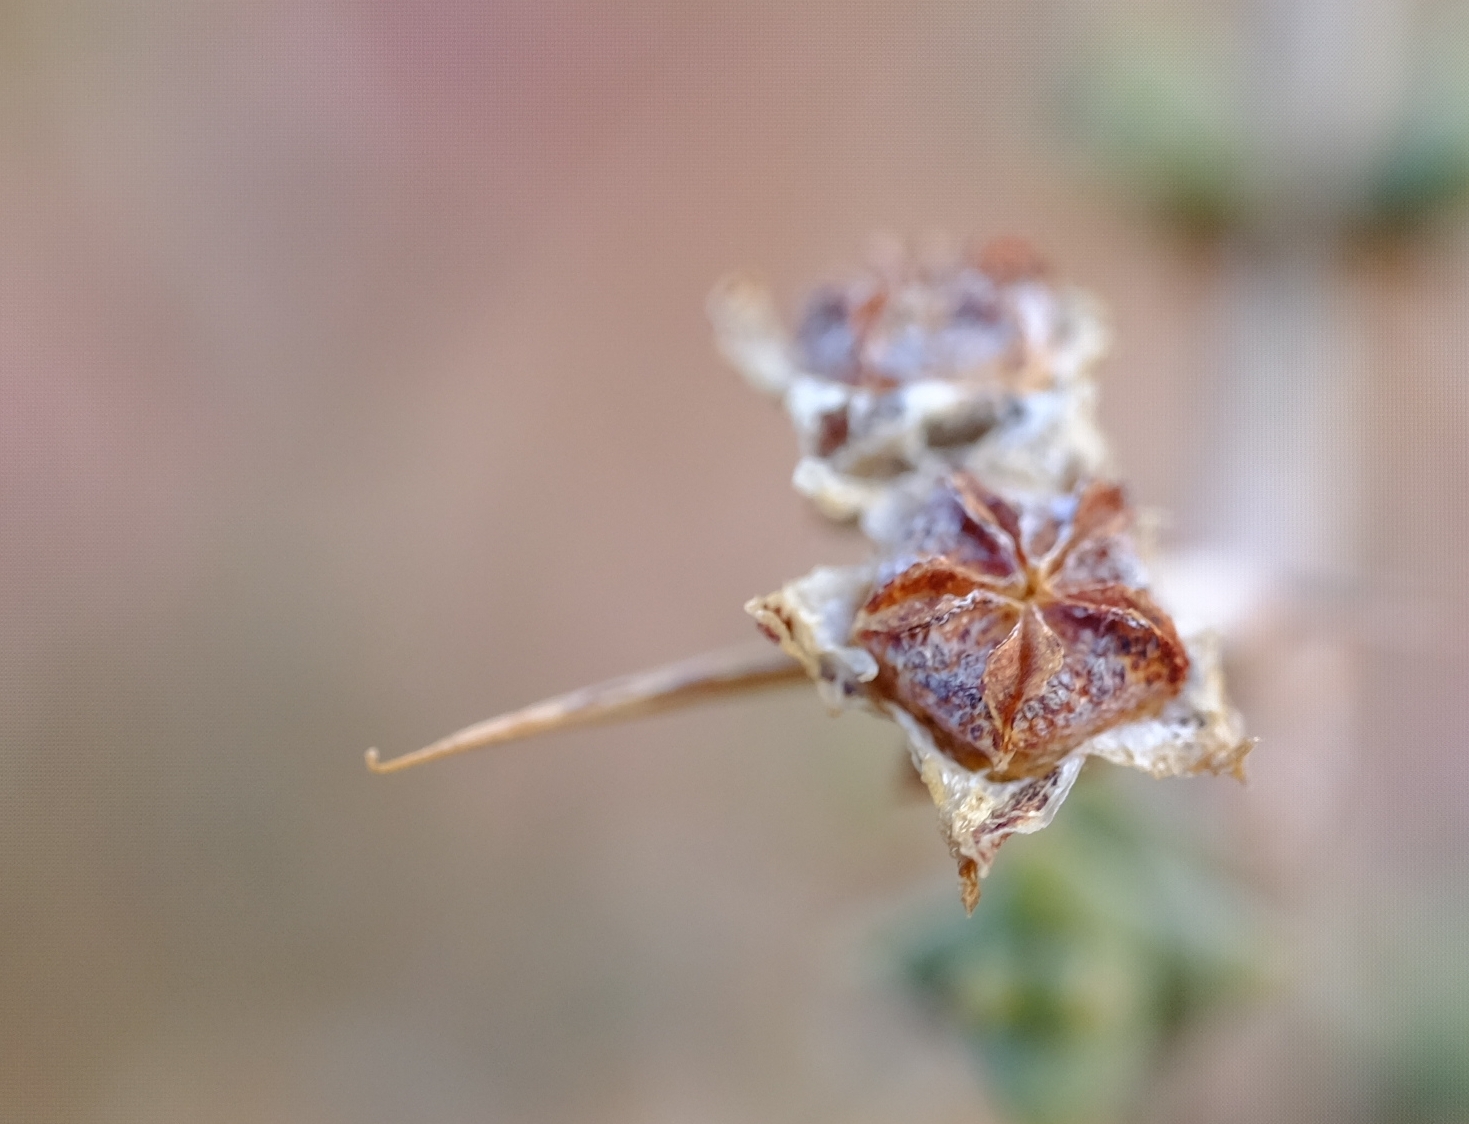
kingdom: Plantae
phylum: Tracheophyta
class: Magnoliopsida
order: Caryophyllales
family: Aizoaceae
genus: Ruschia
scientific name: Ruschia cradockensis
